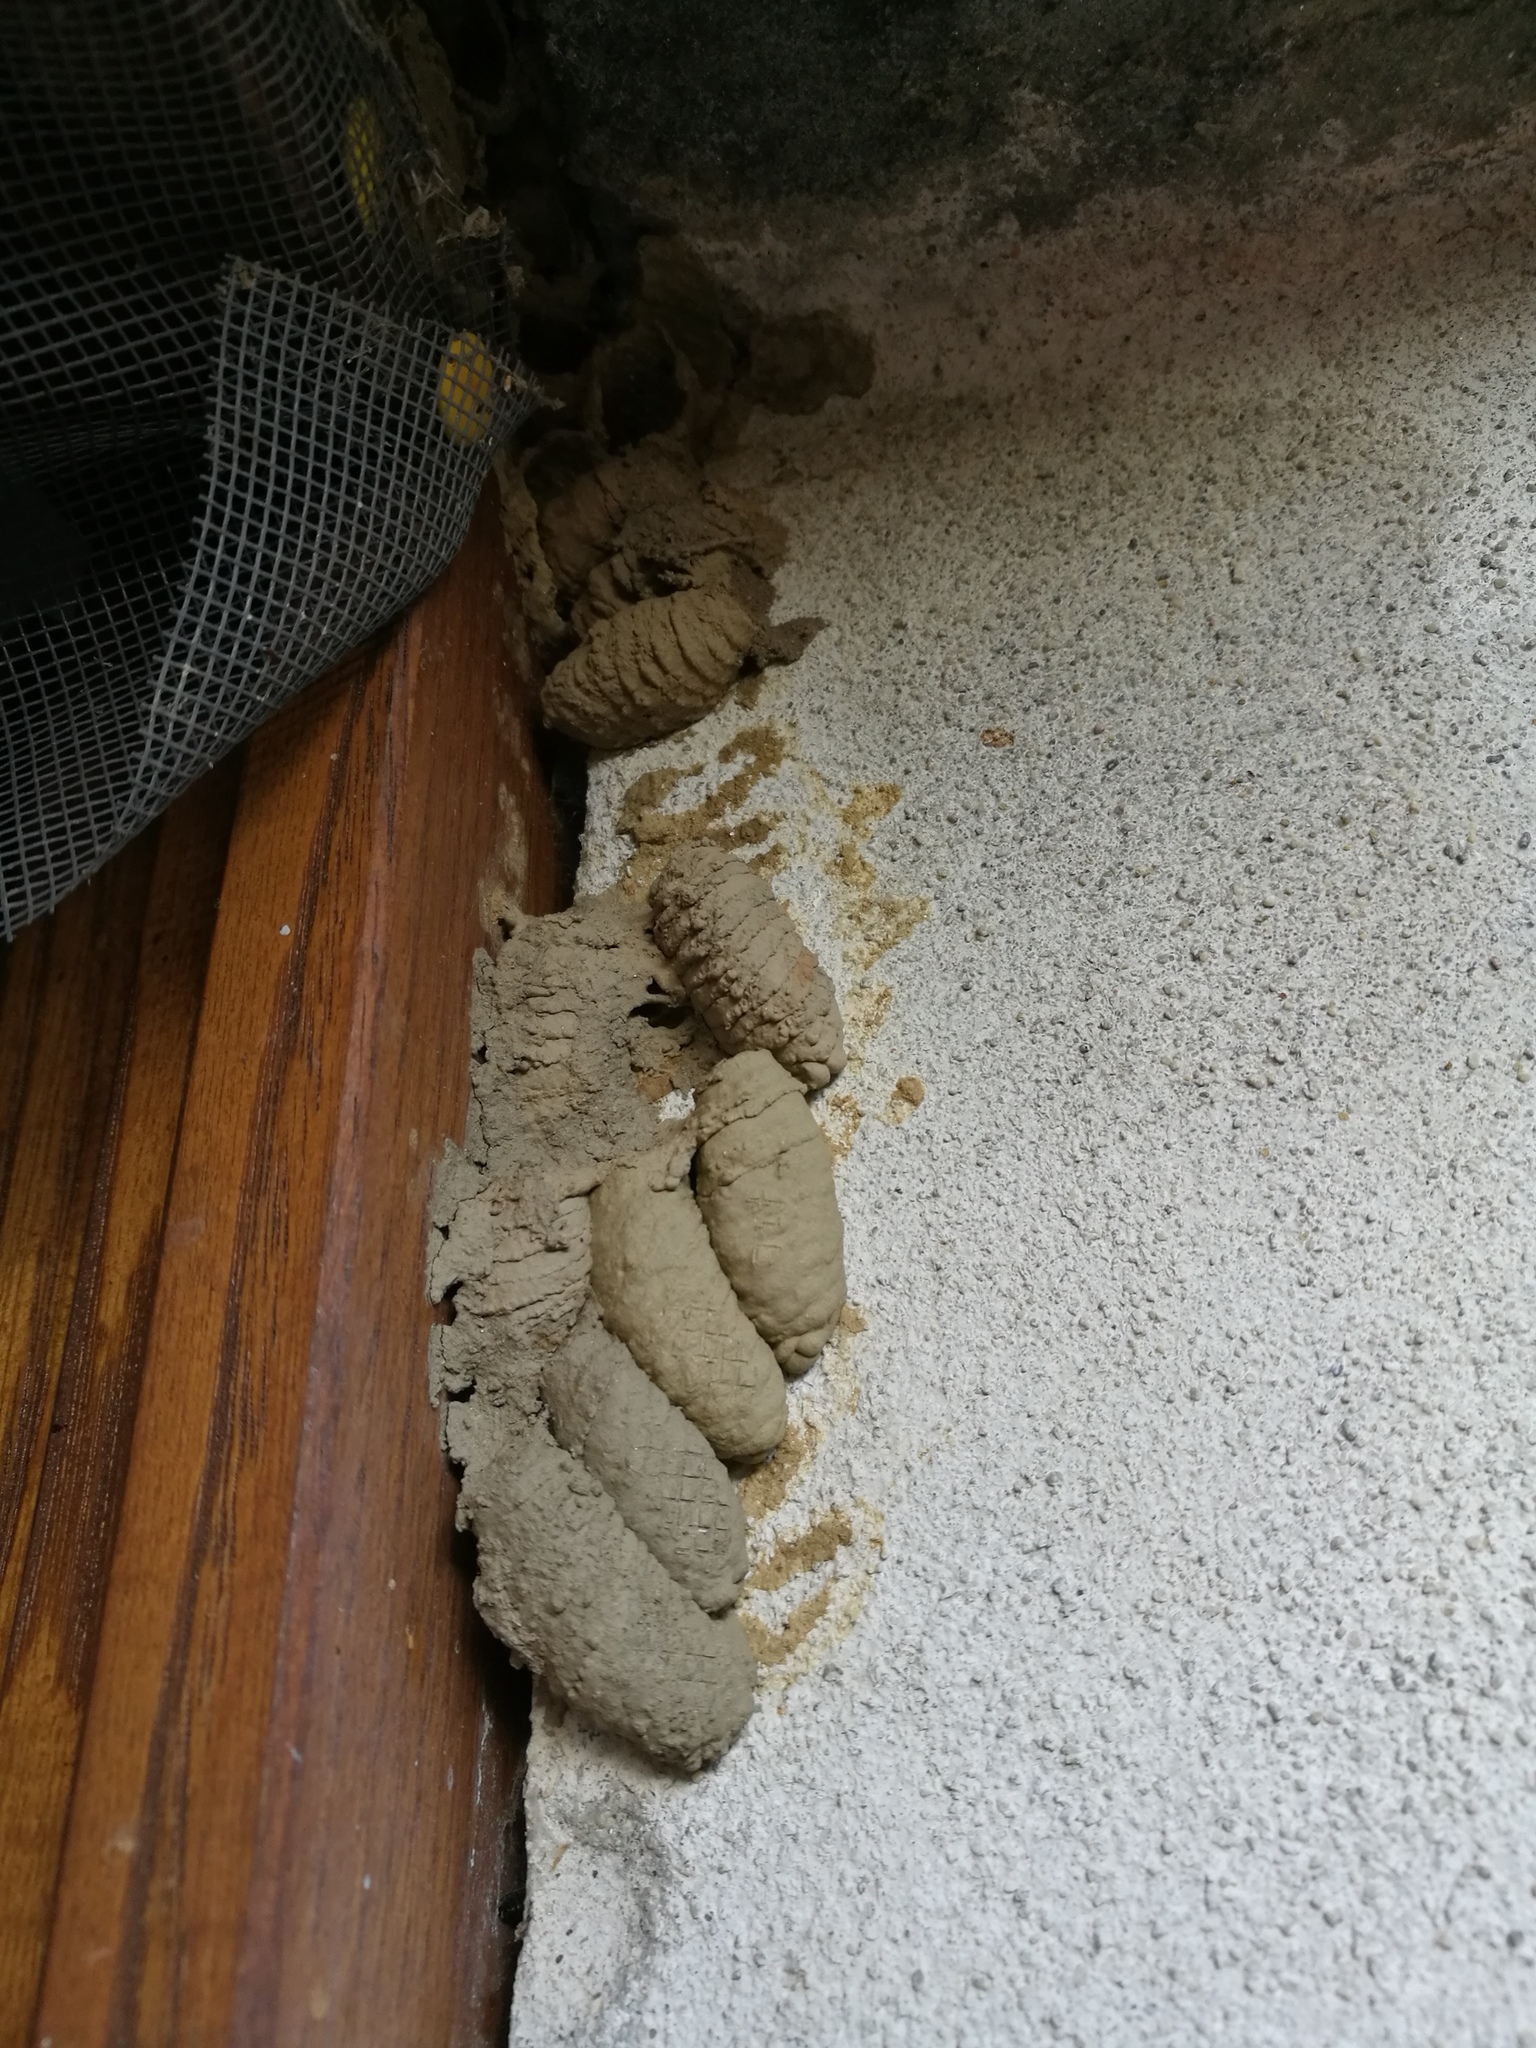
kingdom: Animalia
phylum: Arthropoda
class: Insecta
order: Hymenoptera
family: Sphecidae
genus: Sceliphron
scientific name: Sceliphron curvatum
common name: Pèlopèe
